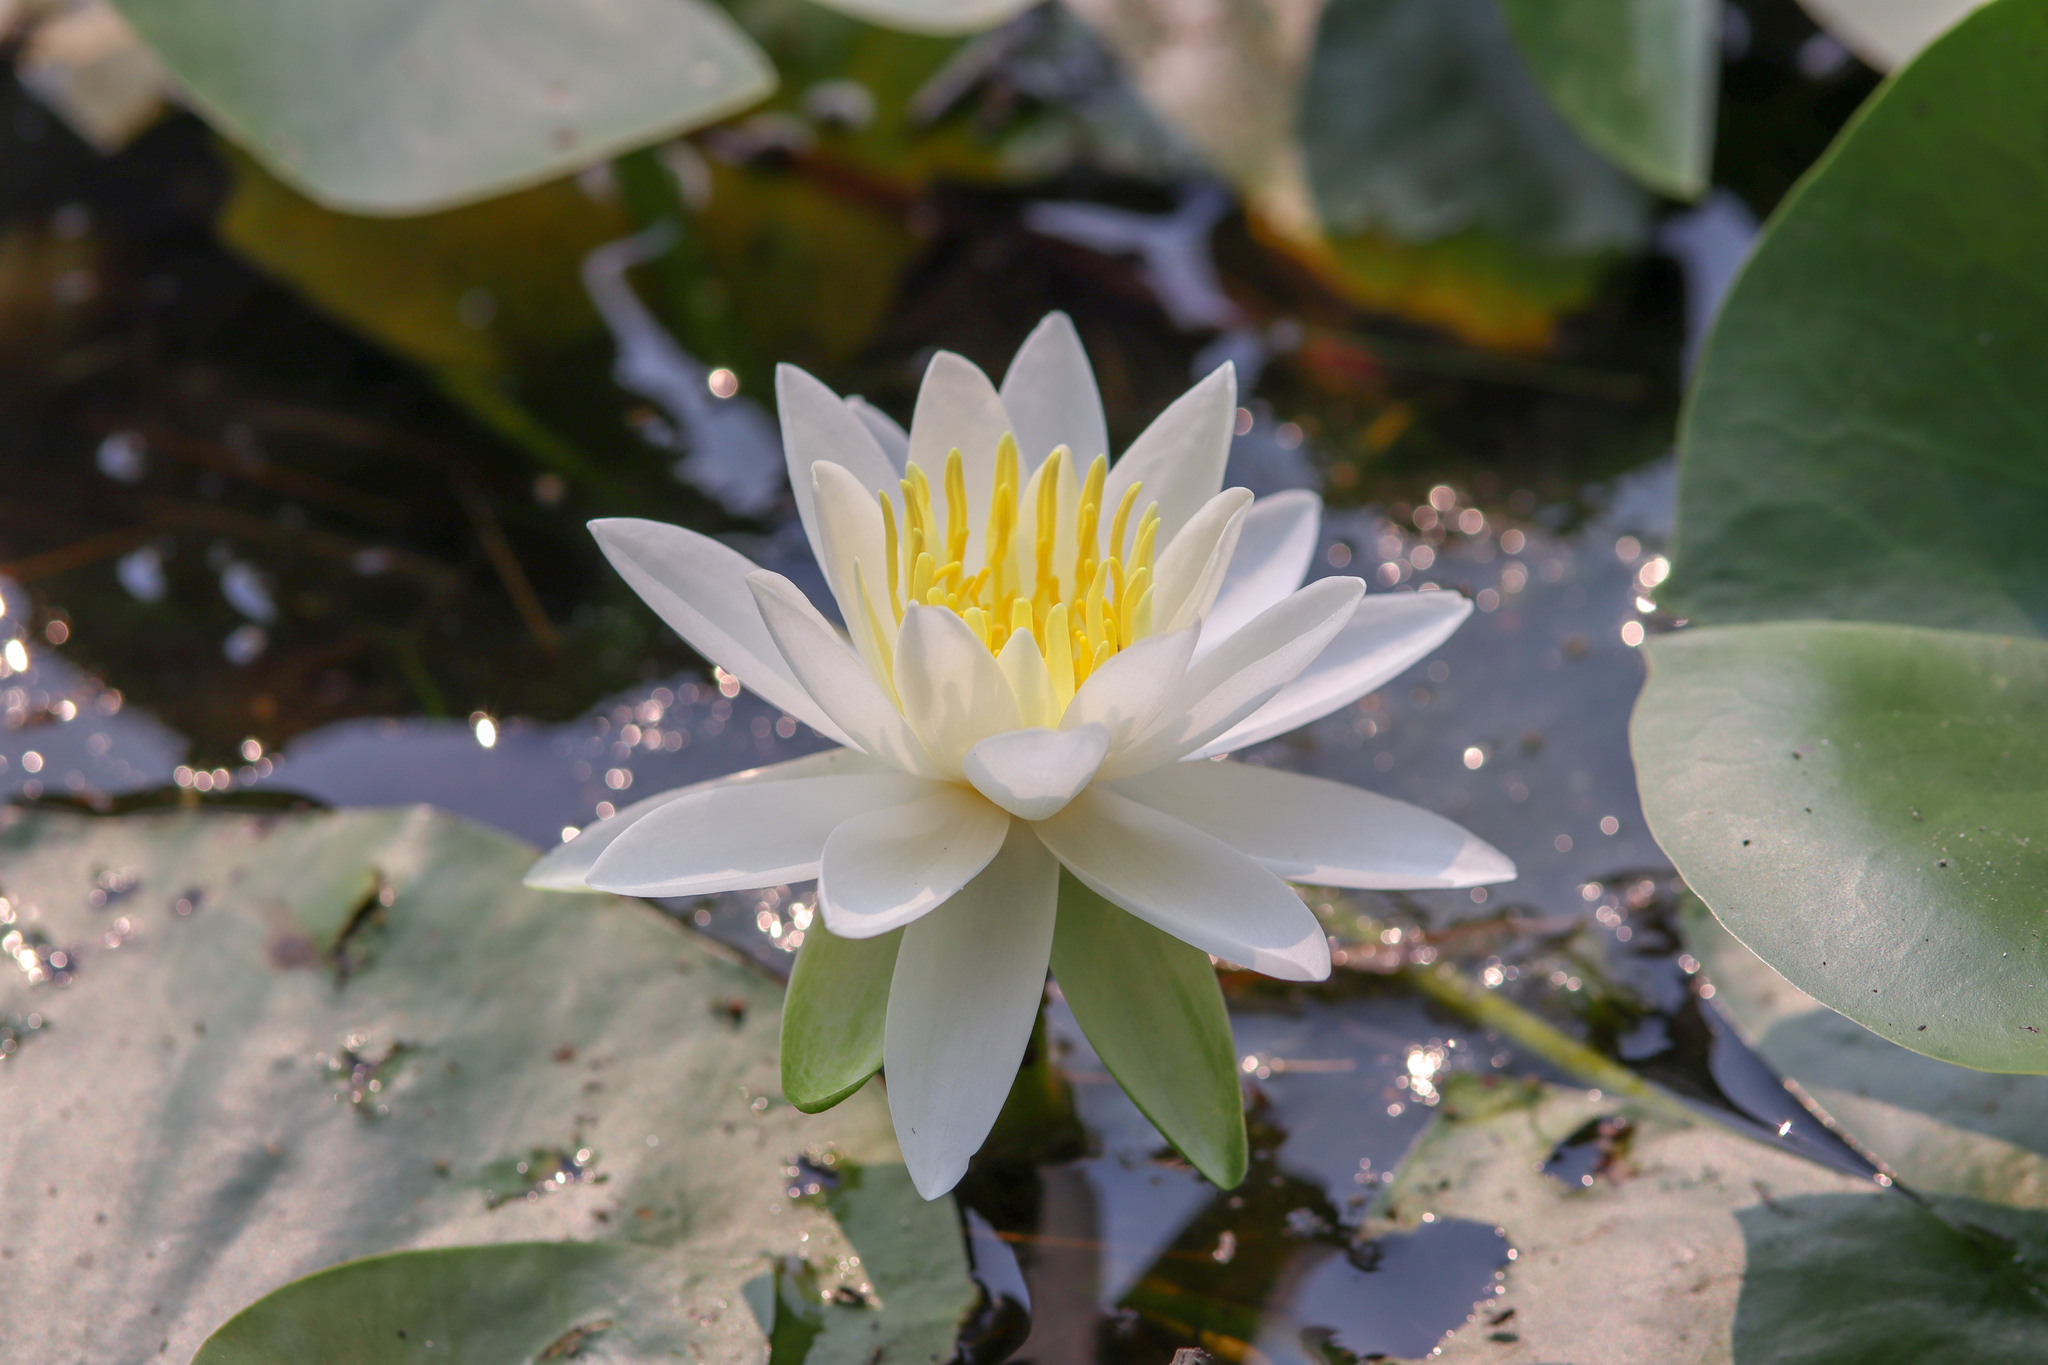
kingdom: Plantae
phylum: Tracheophyta
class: Magnoliopsida
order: Nymphaeales
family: Nymphaeaceae
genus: Nymphaea
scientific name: Nymphaea odorata
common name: Fragrant water-lily
